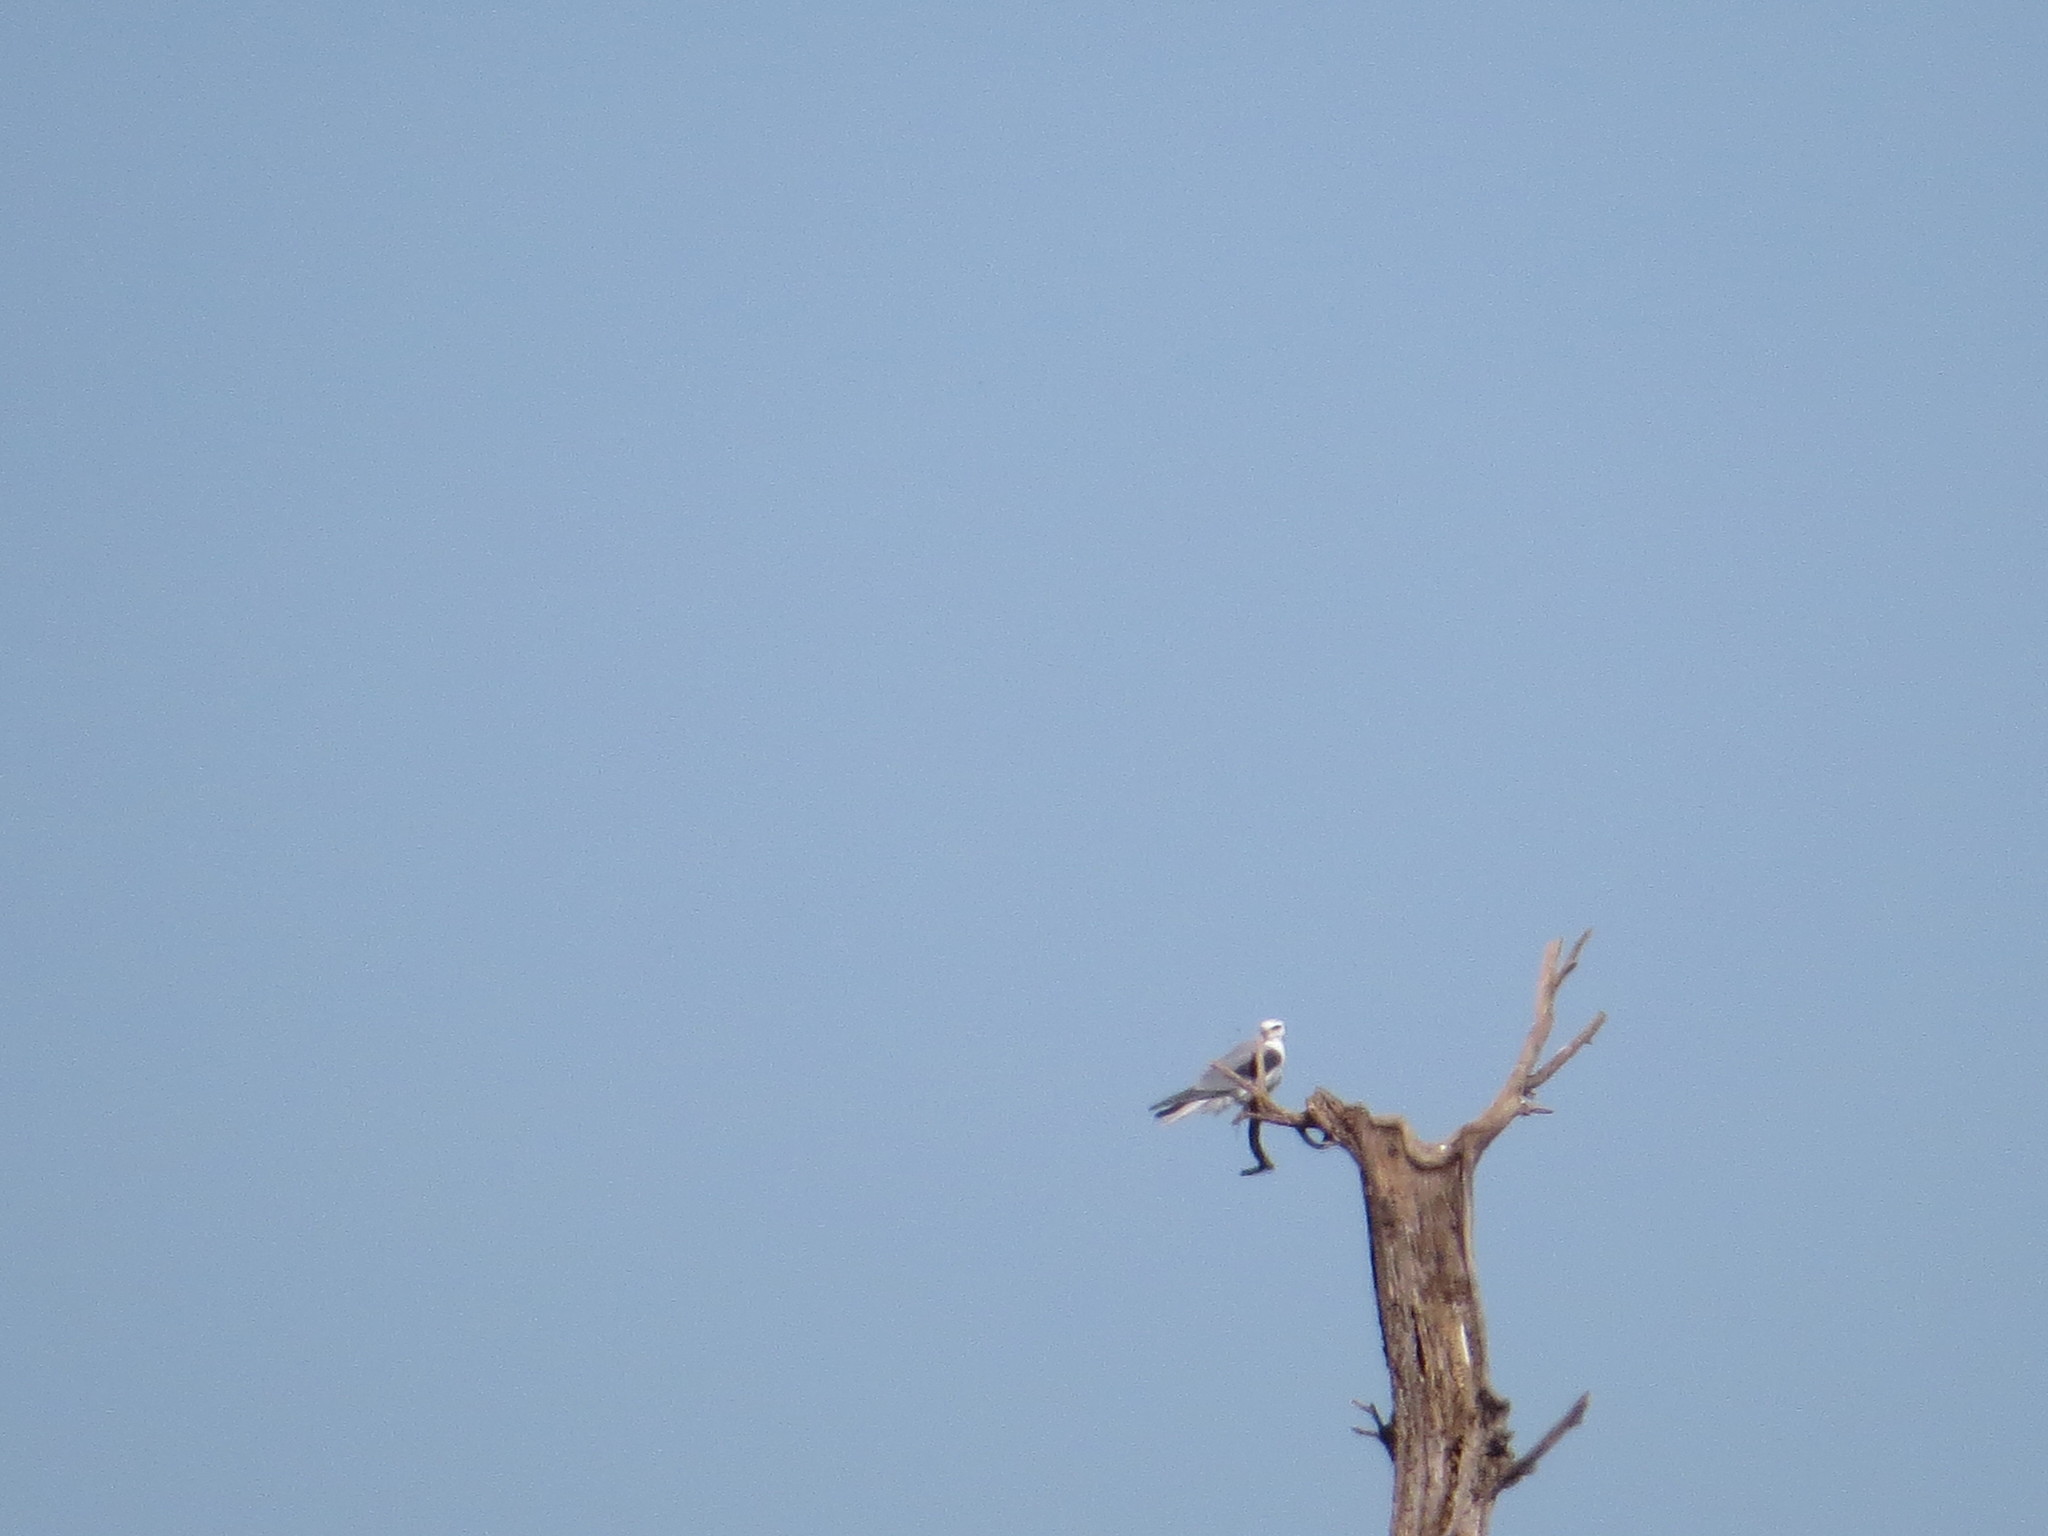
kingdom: Animalia
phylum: Chordata
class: Aves
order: Accipitriformes
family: Accipitridae
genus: Elanus
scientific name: Elanus leucurus
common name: White-tailed kite
